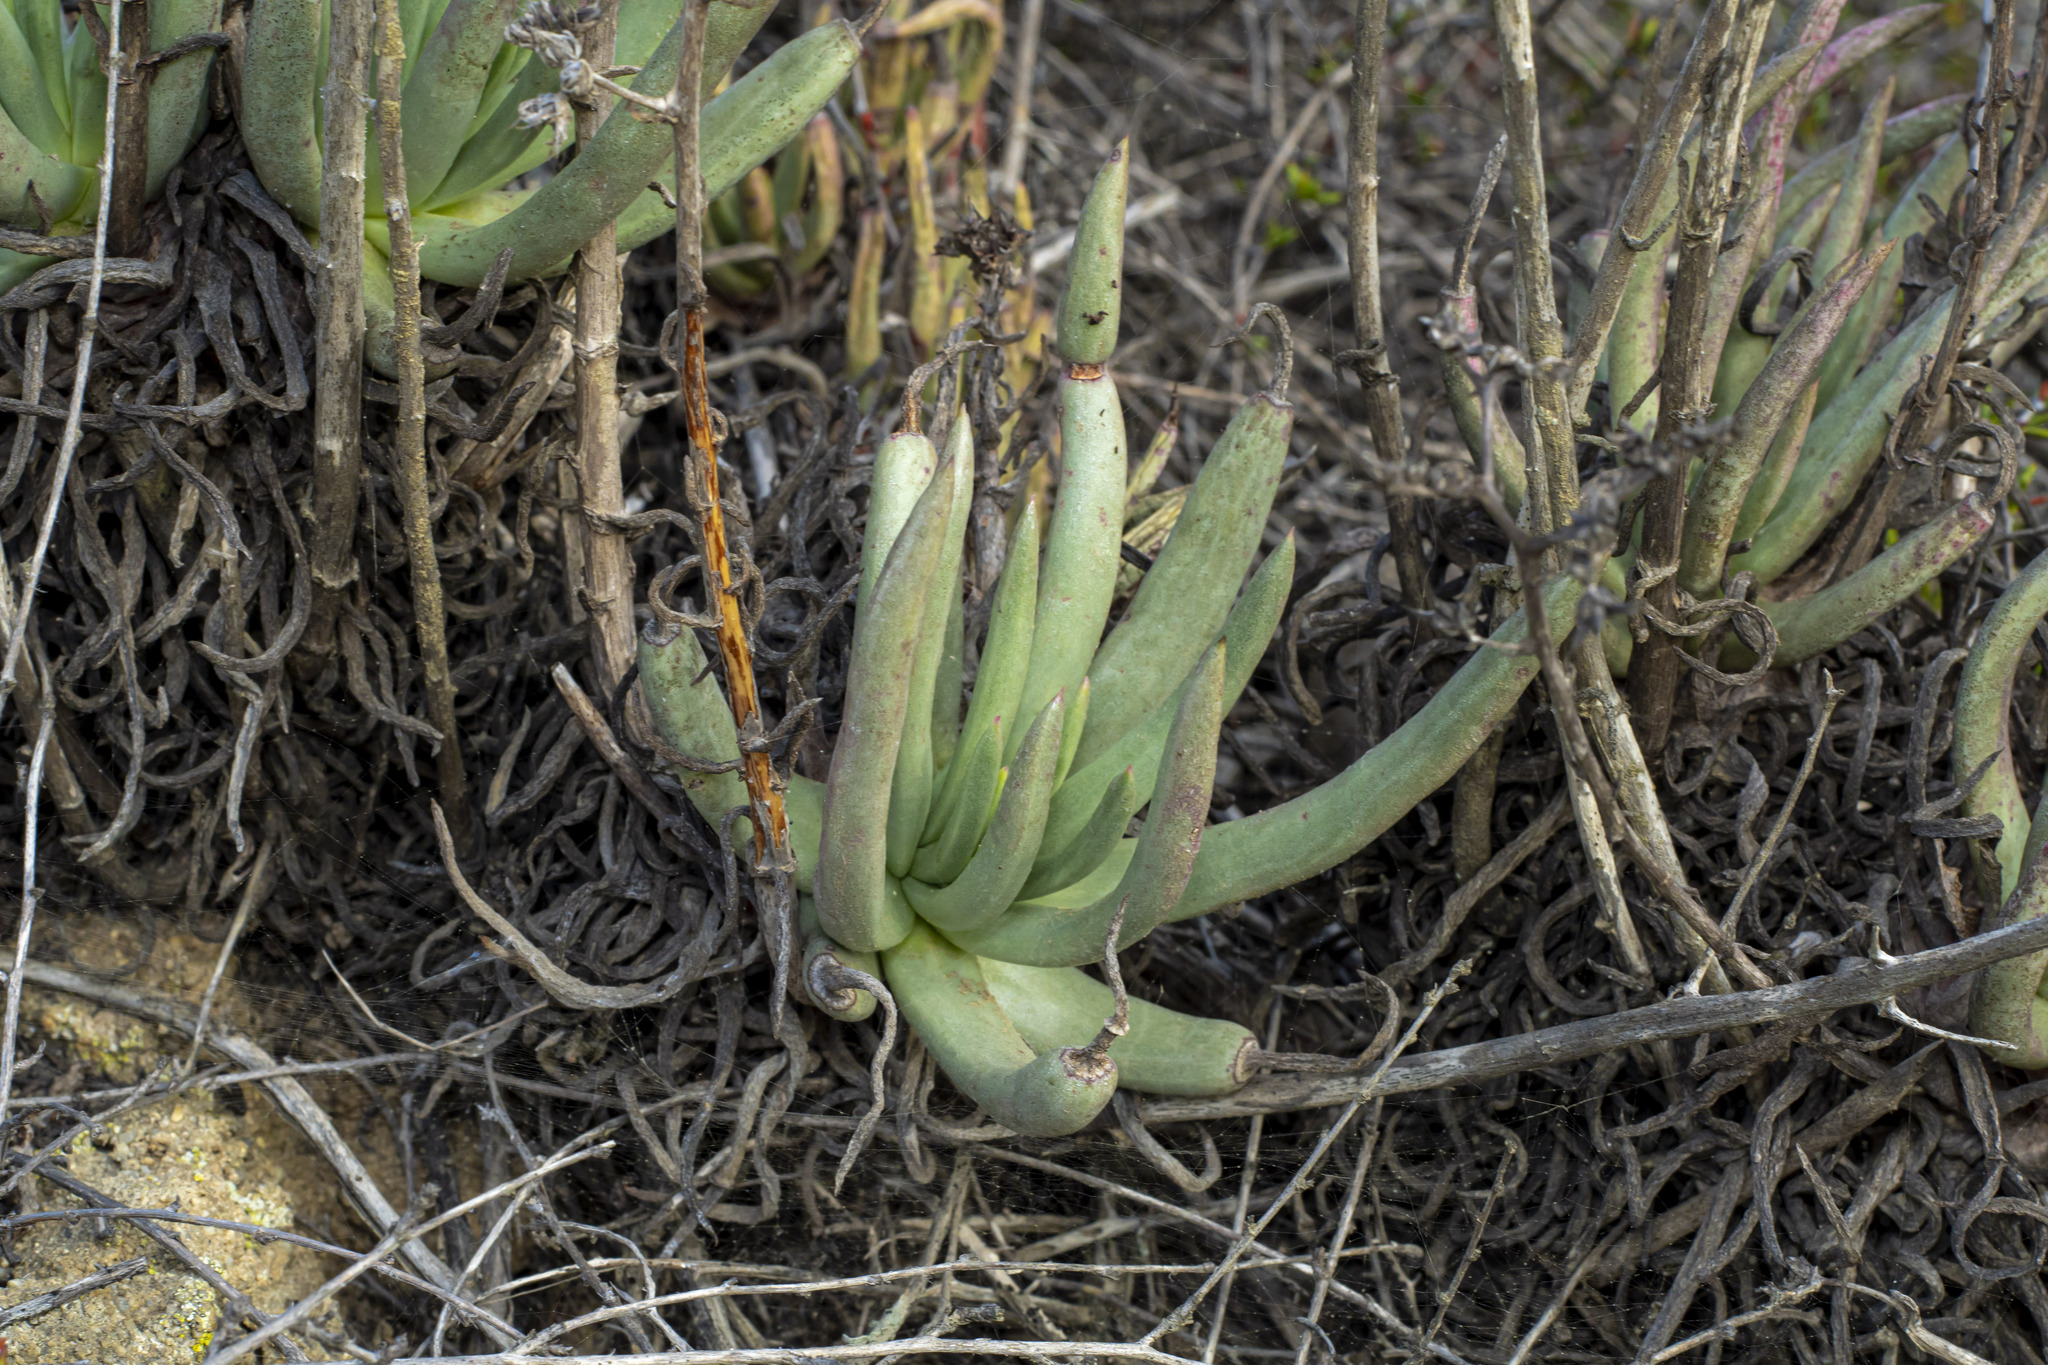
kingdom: Plantae
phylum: Tracheophyta
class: Magnoliopsida
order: Saxifragales
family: Crassulaceae
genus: Dudleya
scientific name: Dudleya edulis
